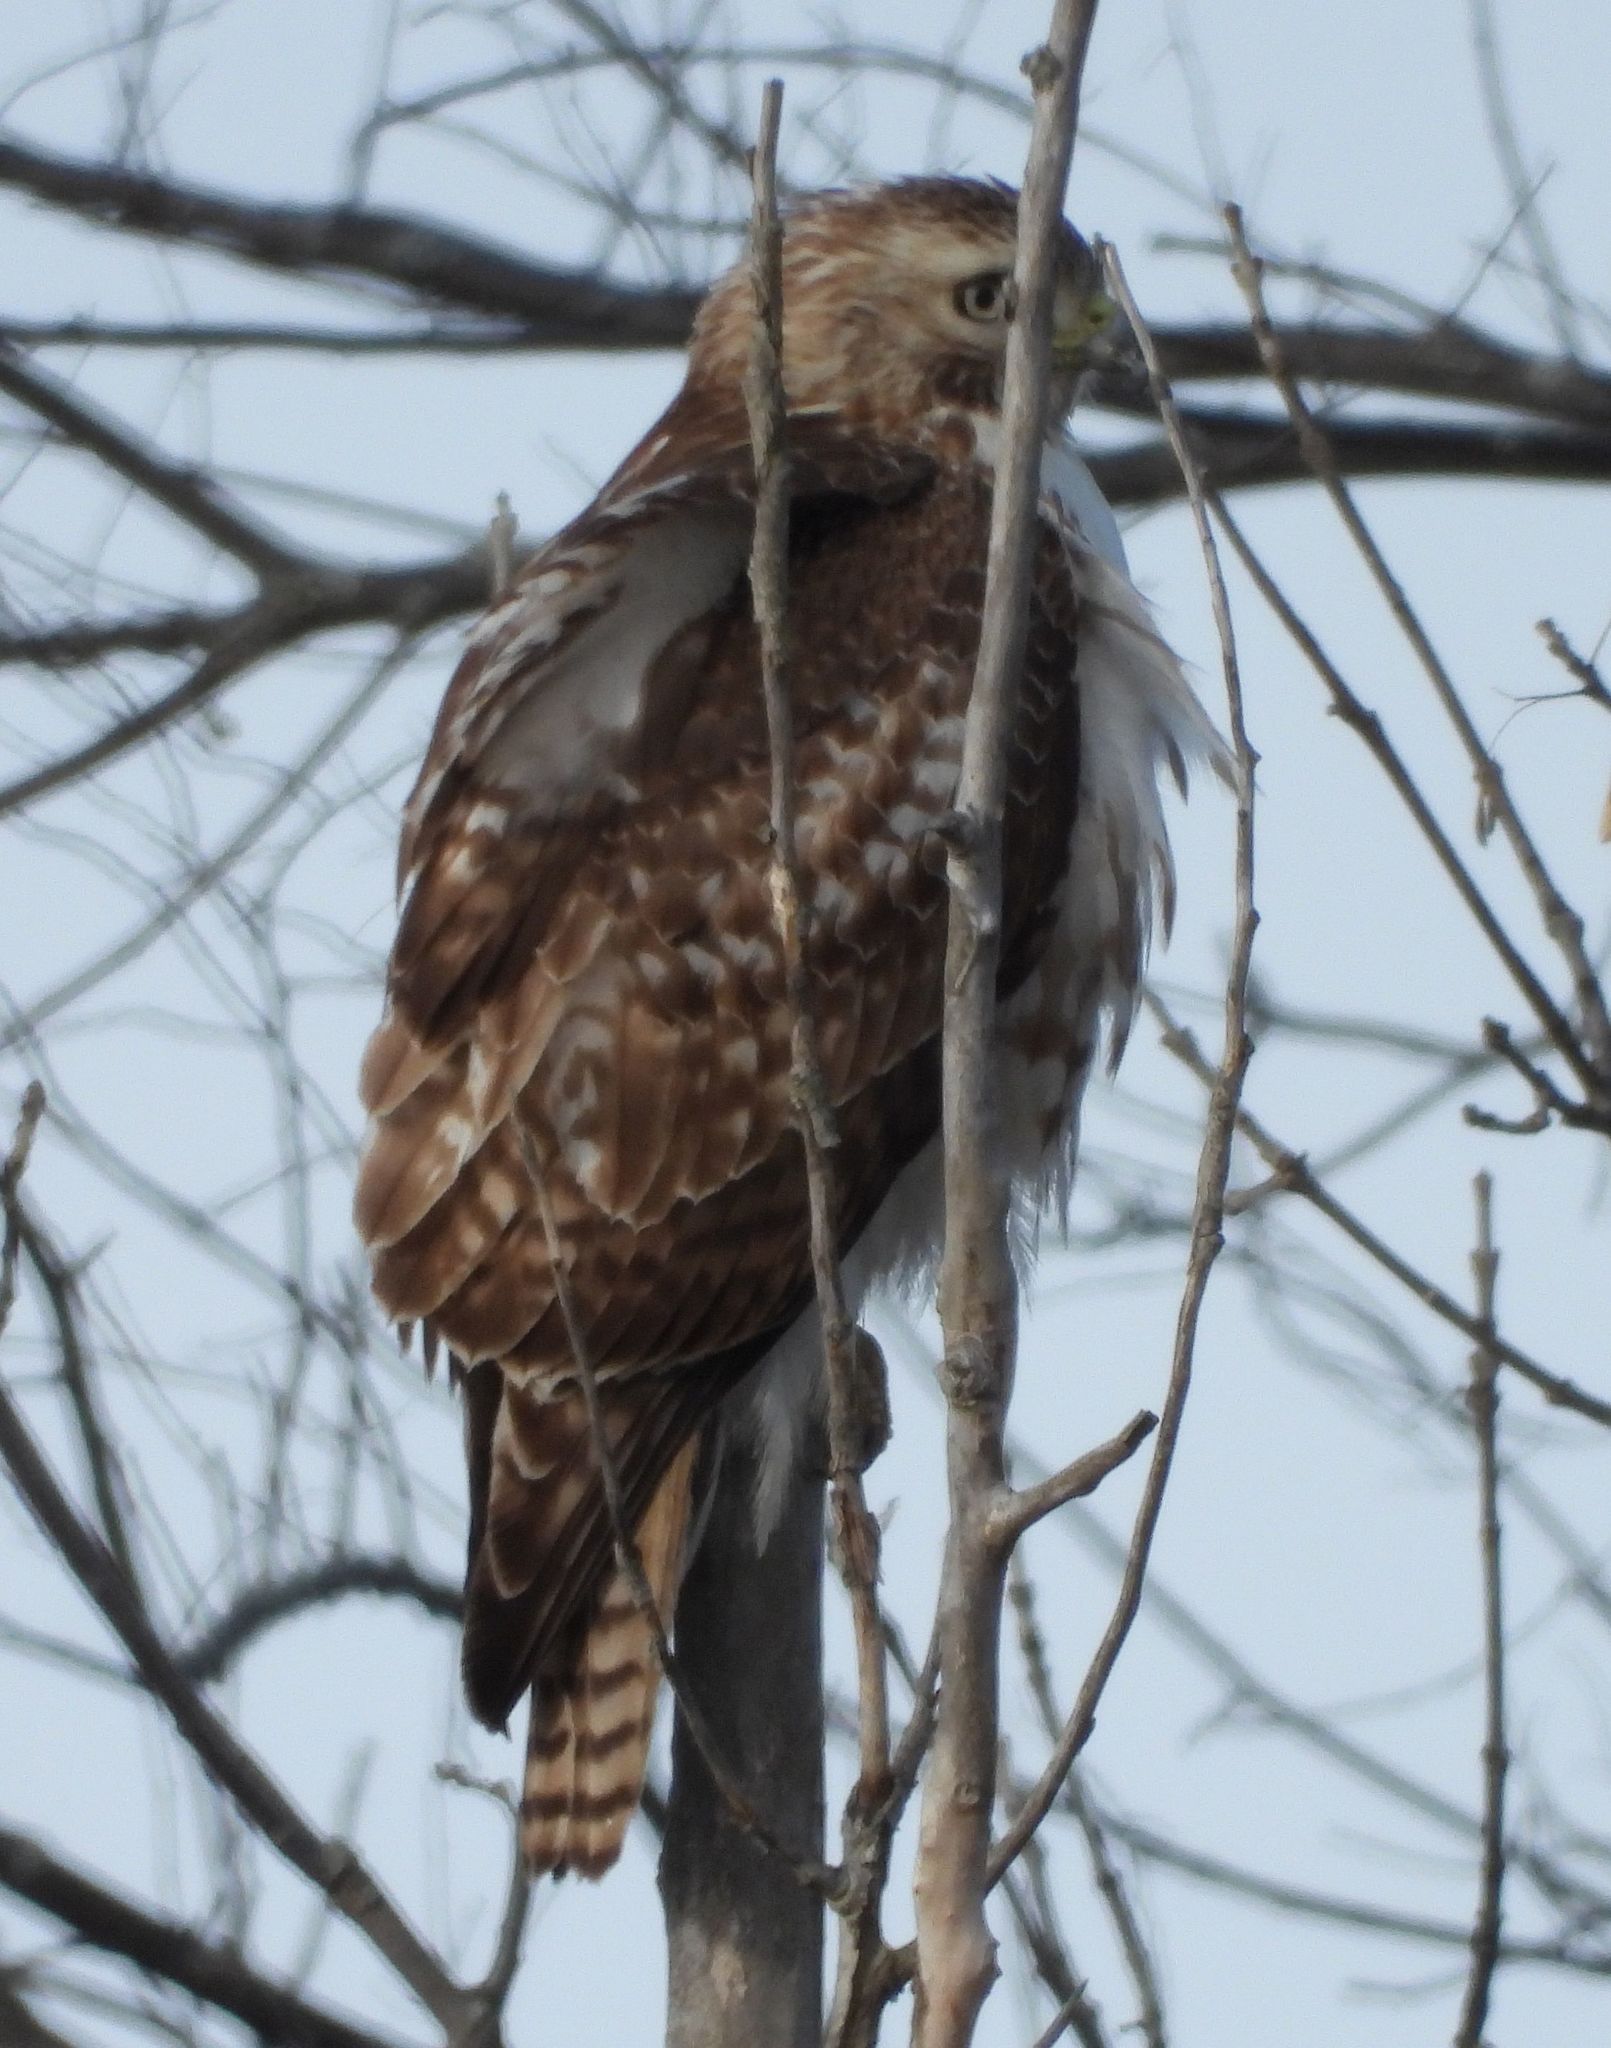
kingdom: Animalia
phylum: Chordata
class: Aves
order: Accipitriformes
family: Accipitridae
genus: Buteo
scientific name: Buteo jamaicensis
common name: Red-tailed hawk
